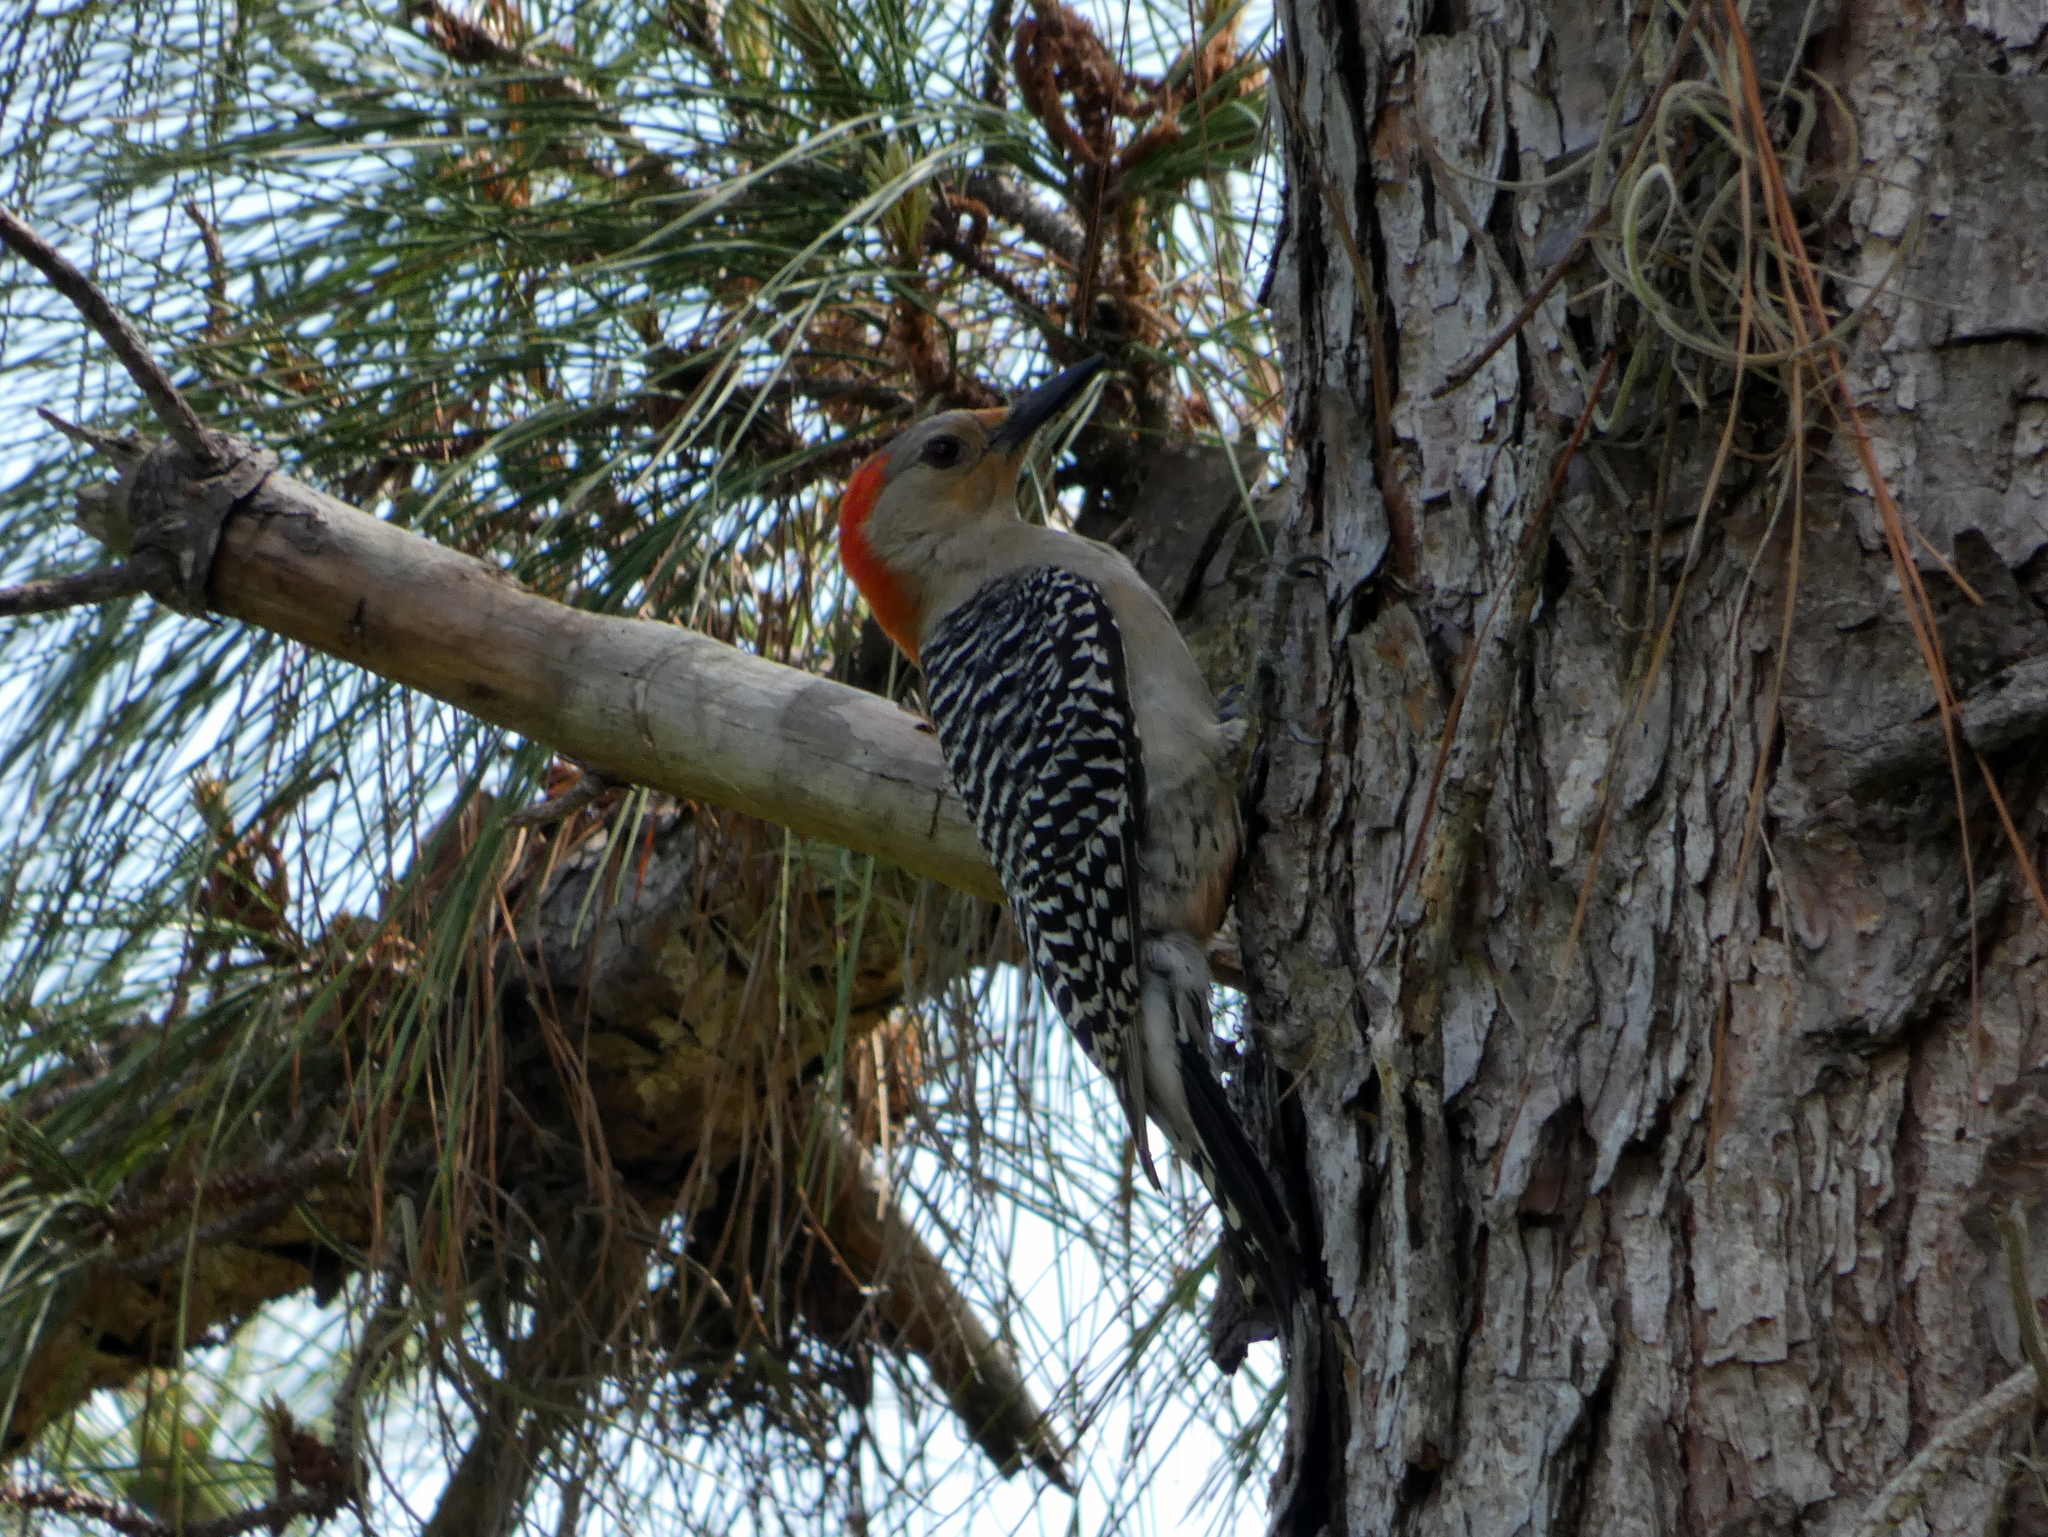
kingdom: Animalia
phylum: Chordata
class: Aves
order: Piciformes
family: Picidae
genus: Melanerpes
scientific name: Melanerpes carolinus
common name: Red-bellied woodpecker
